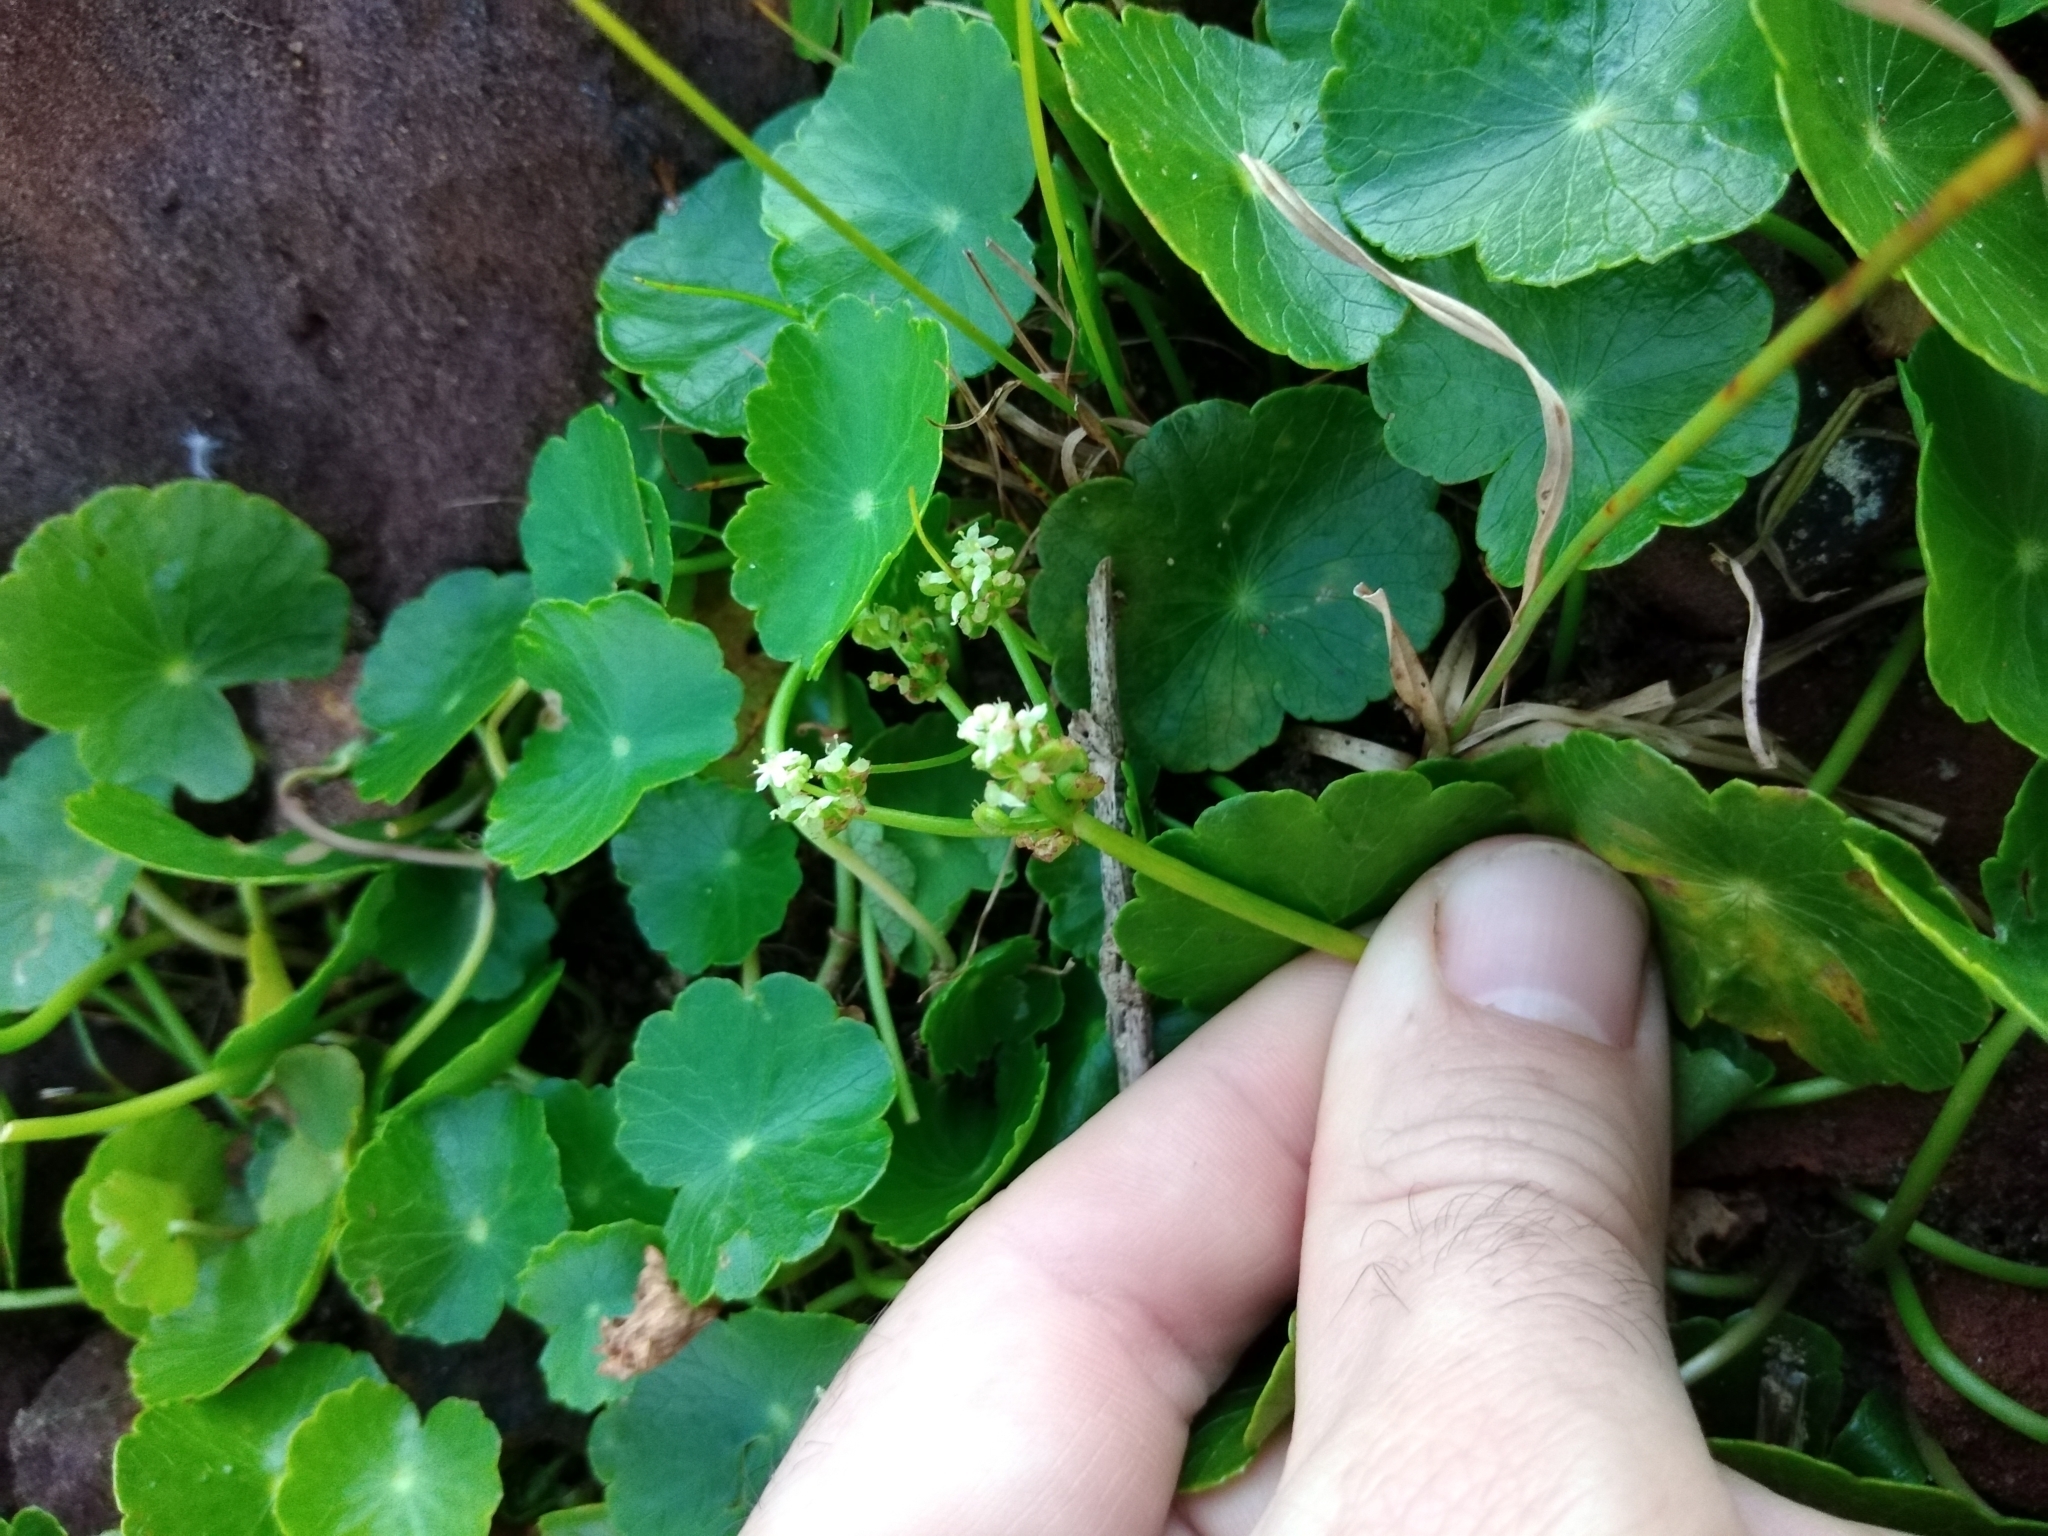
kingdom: Plantae
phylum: Tracheophyta
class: Magnoliopsida
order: Apiales
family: Araliaceae
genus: Hydrocotyle
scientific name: Hydrocotyle bonariensis
